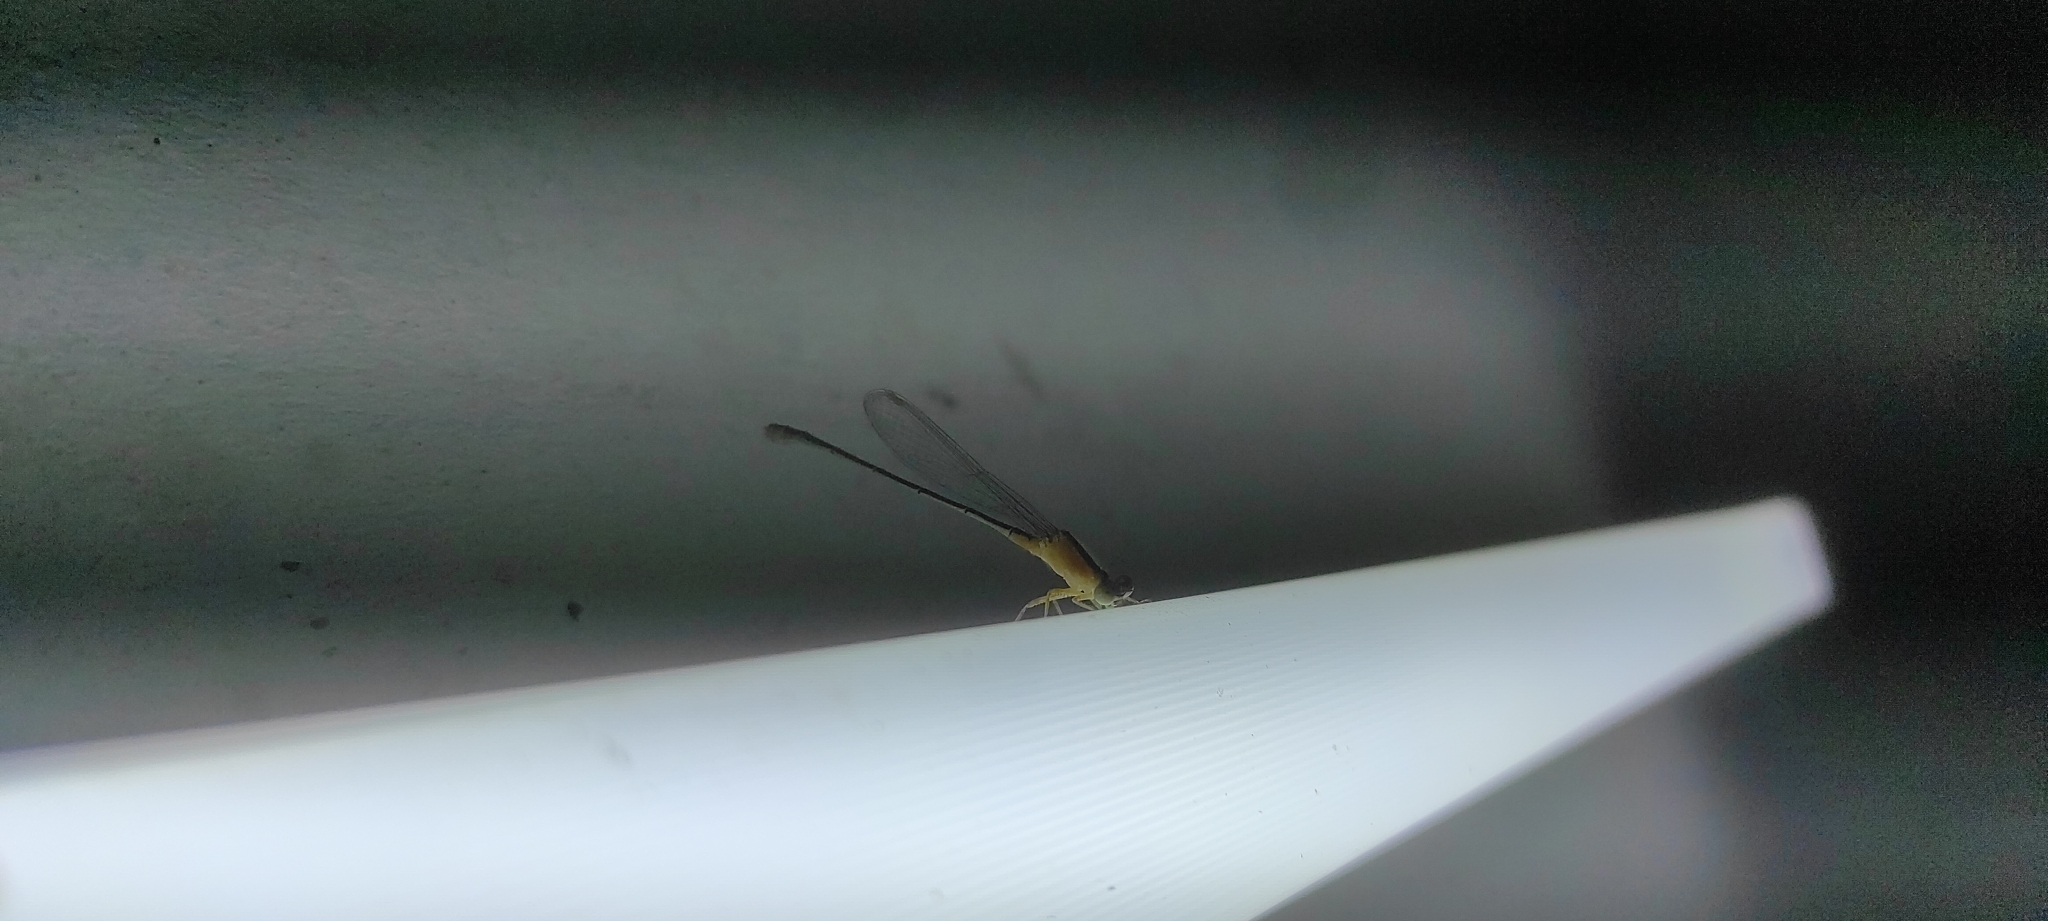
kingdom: Animalia
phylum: Arthropoda
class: Insecta
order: Odonata
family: Coenagrionidae
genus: Ischnura
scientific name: Ischnura senegalensis
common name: Tropical bluetail
